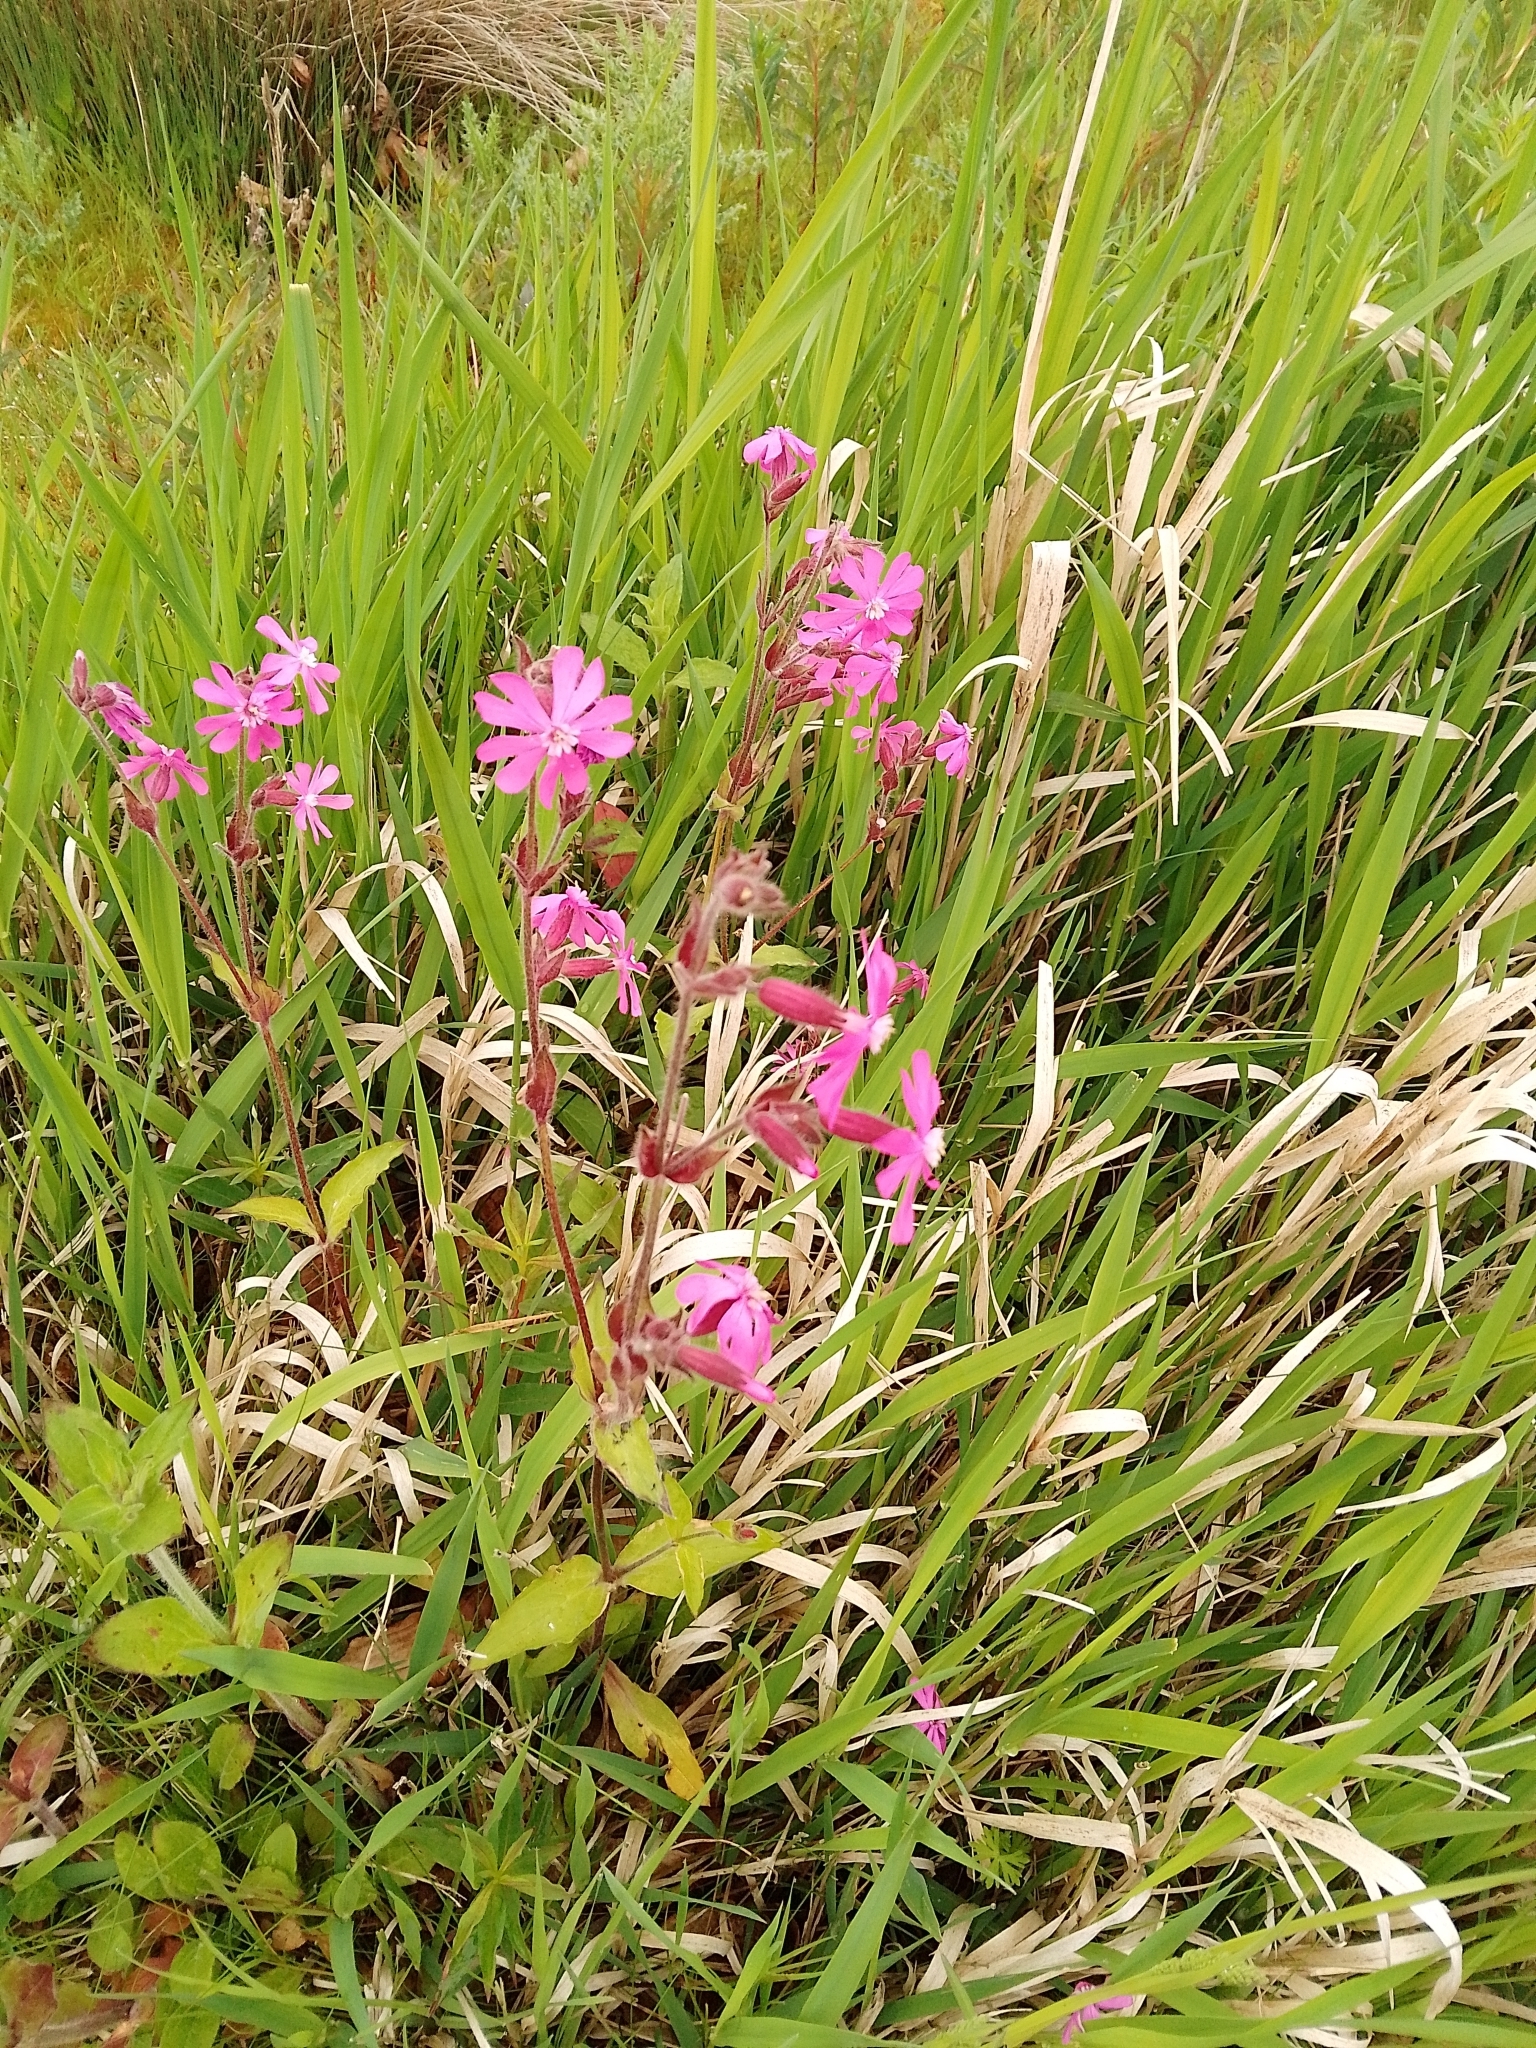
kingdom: Plantae
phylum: Tracheophyta
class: Magnoliopsida
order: Caryophyllales
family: Caryophyllaceae
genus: Silene
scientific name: Silene dioica
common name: Red campion
